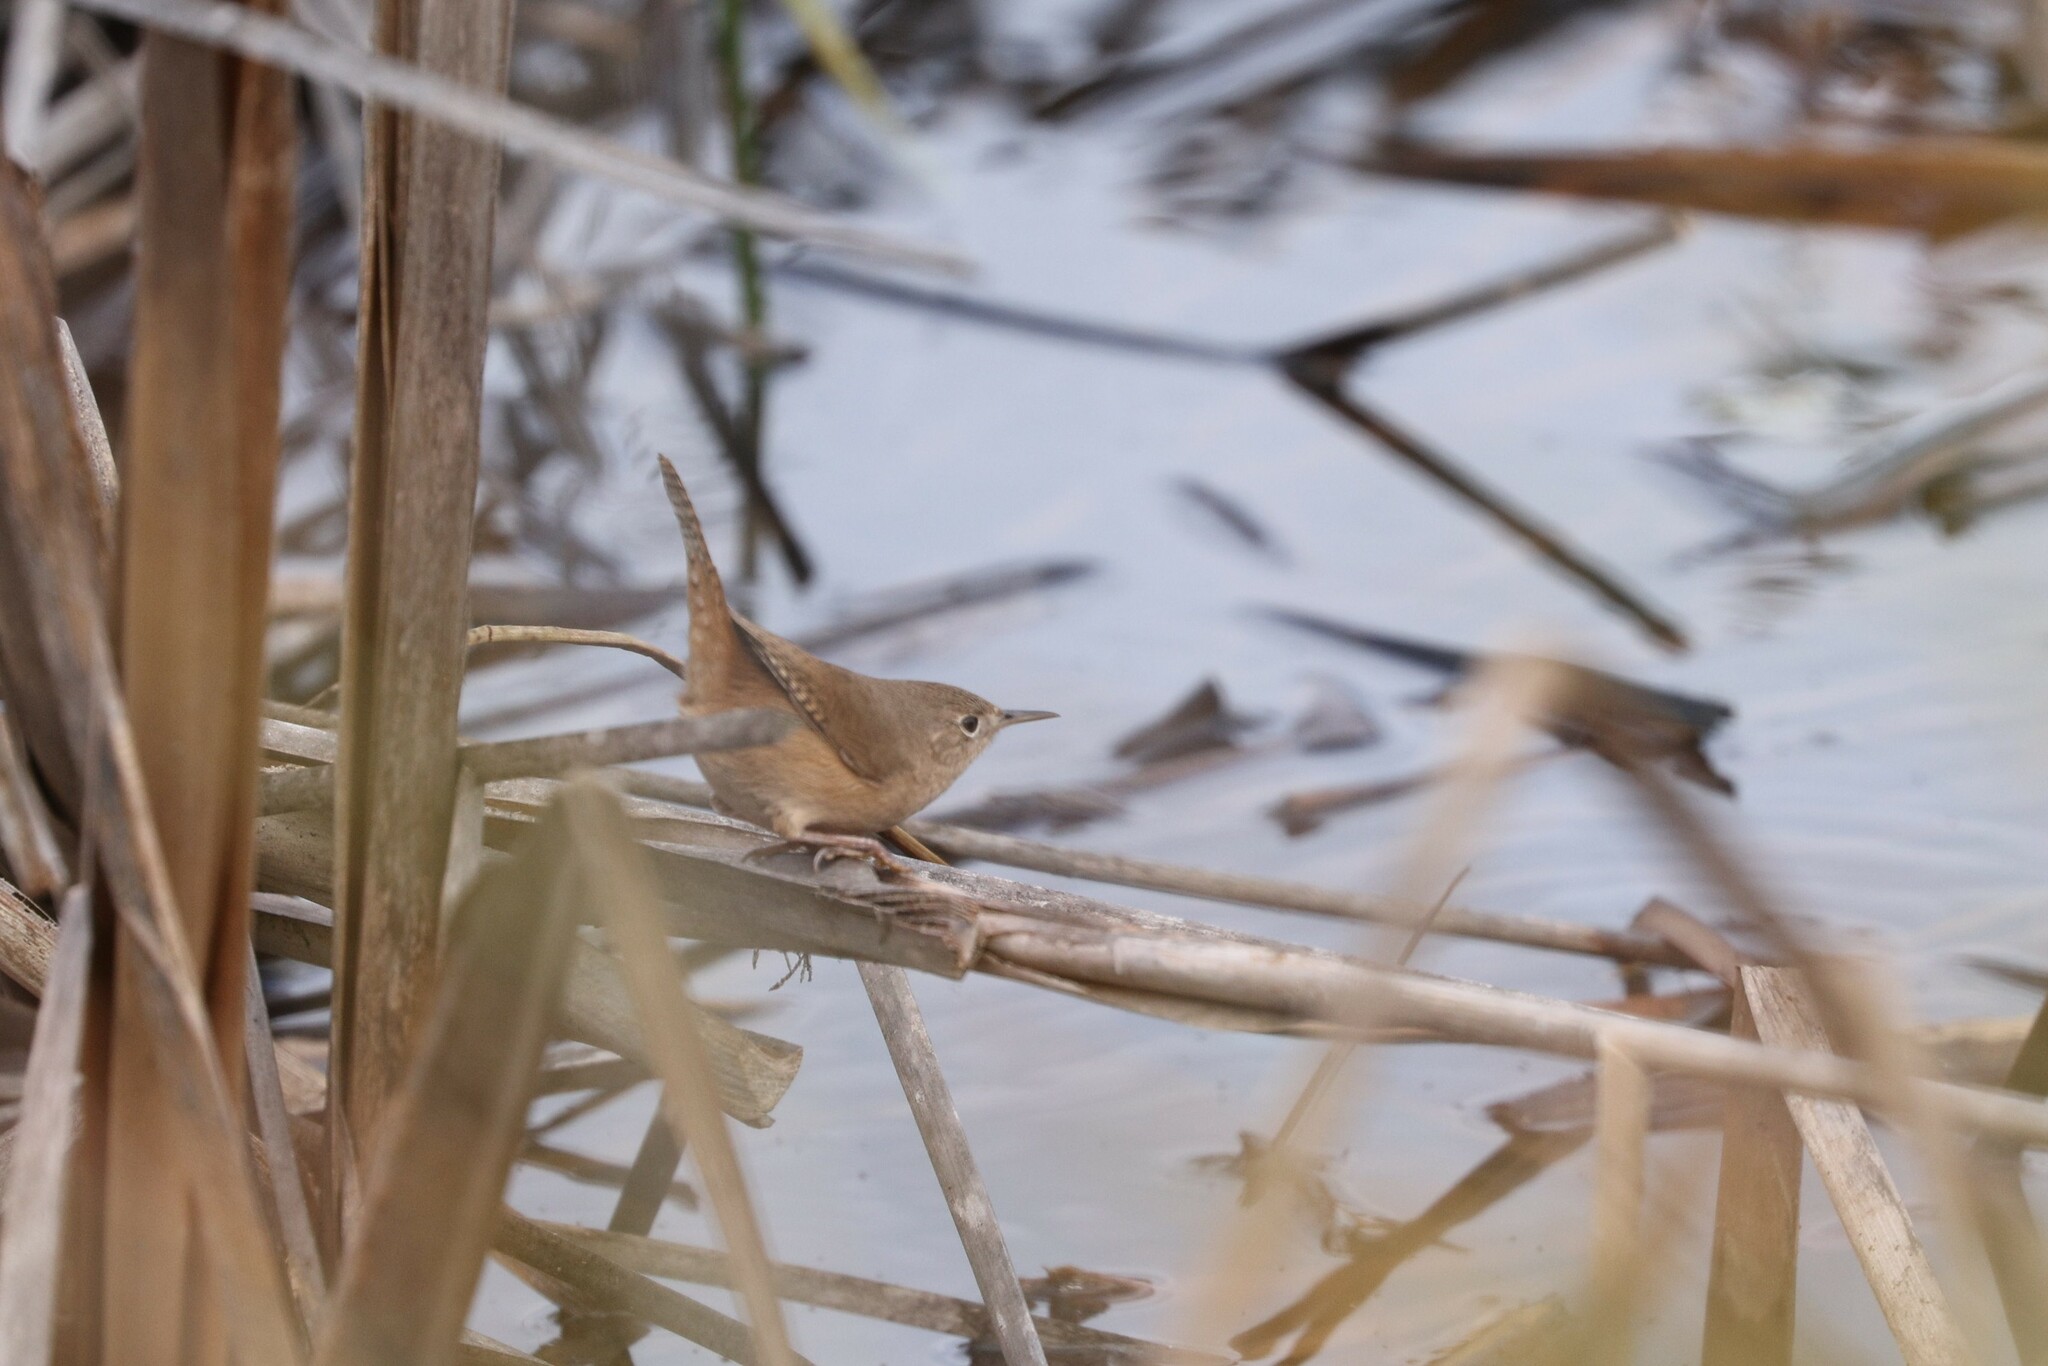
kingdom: Animalia
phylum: Chordata
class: Aves
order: Passeriformes
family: Troglodytidae
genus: Troglodytes
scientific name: Troglodytes aedon
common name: House wren
